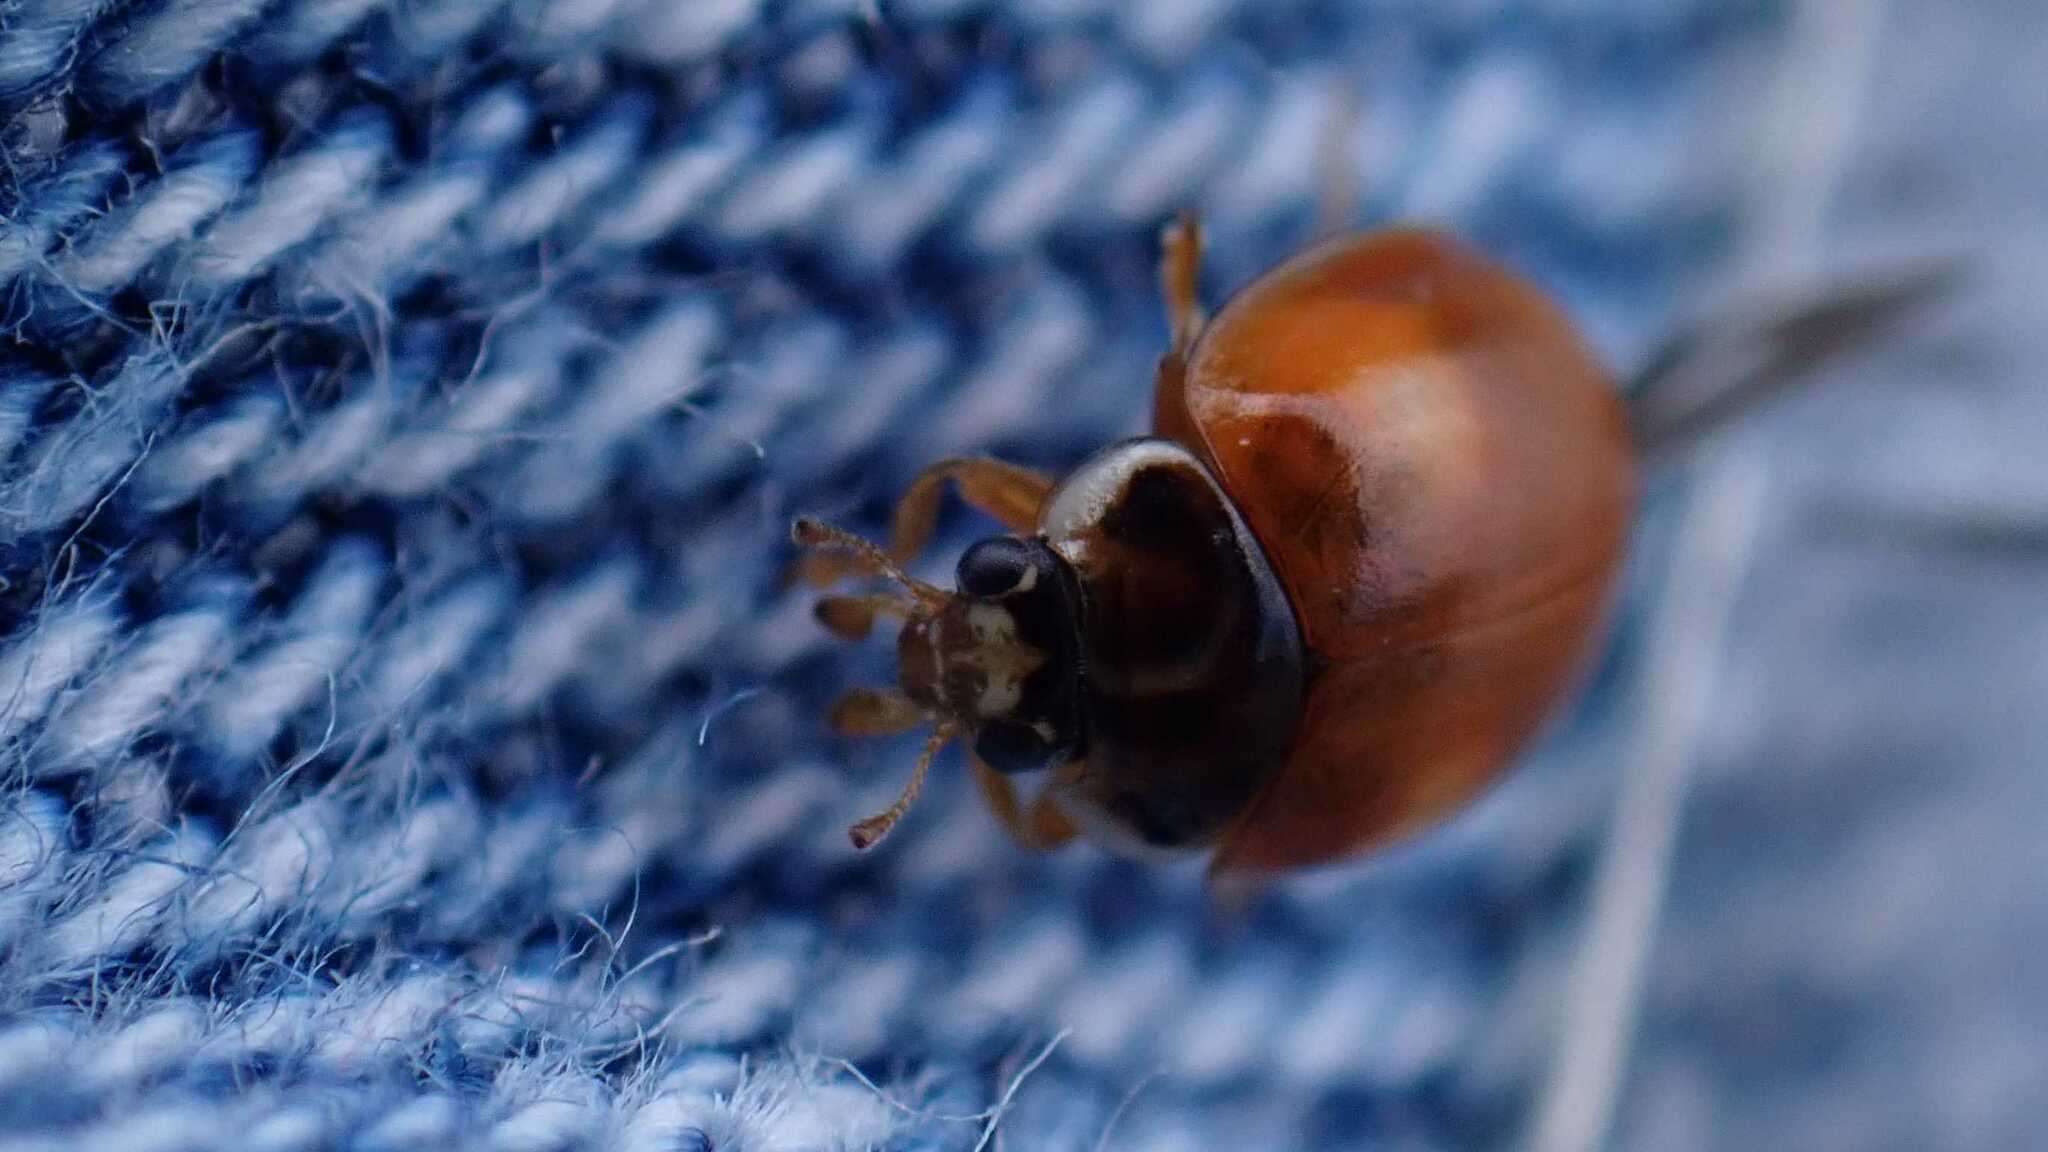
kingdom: Animalia
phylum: Arthropoda
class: Insecta
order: Coleoptera
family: Coccinellidae
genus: Adalia
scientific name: Adalia decempunctata
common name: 10-spot ladybird
